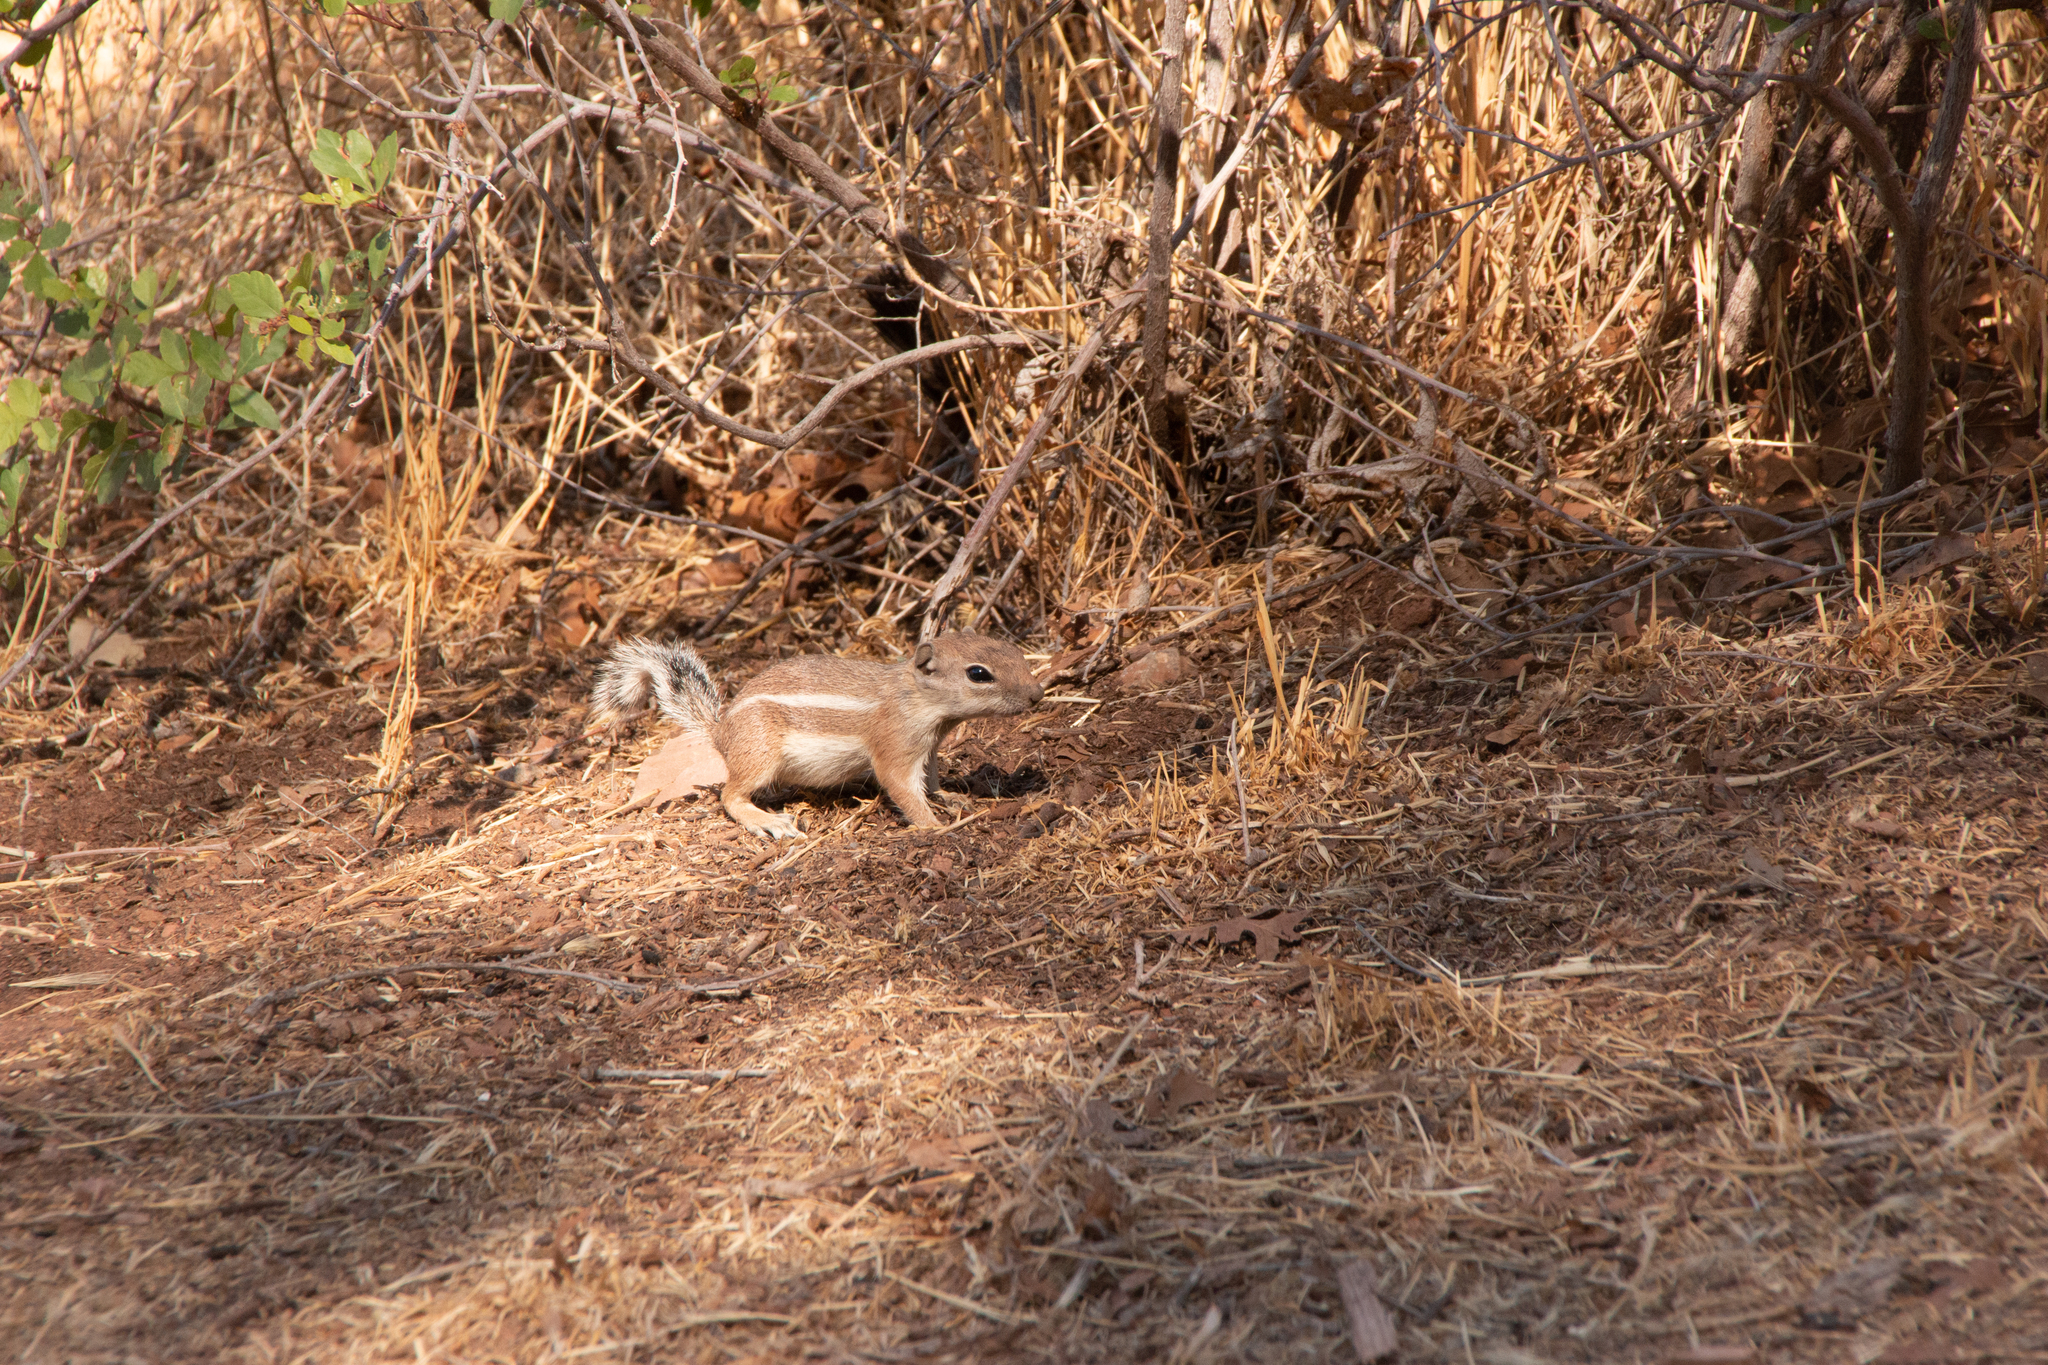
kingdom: Animalia
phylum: Chordata
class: Mammalia
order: Rodentia
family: Sciuridae
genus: Ammospermophilus
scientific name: Ammospermophilus leucurus
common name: White-tailed antelope squirrel
